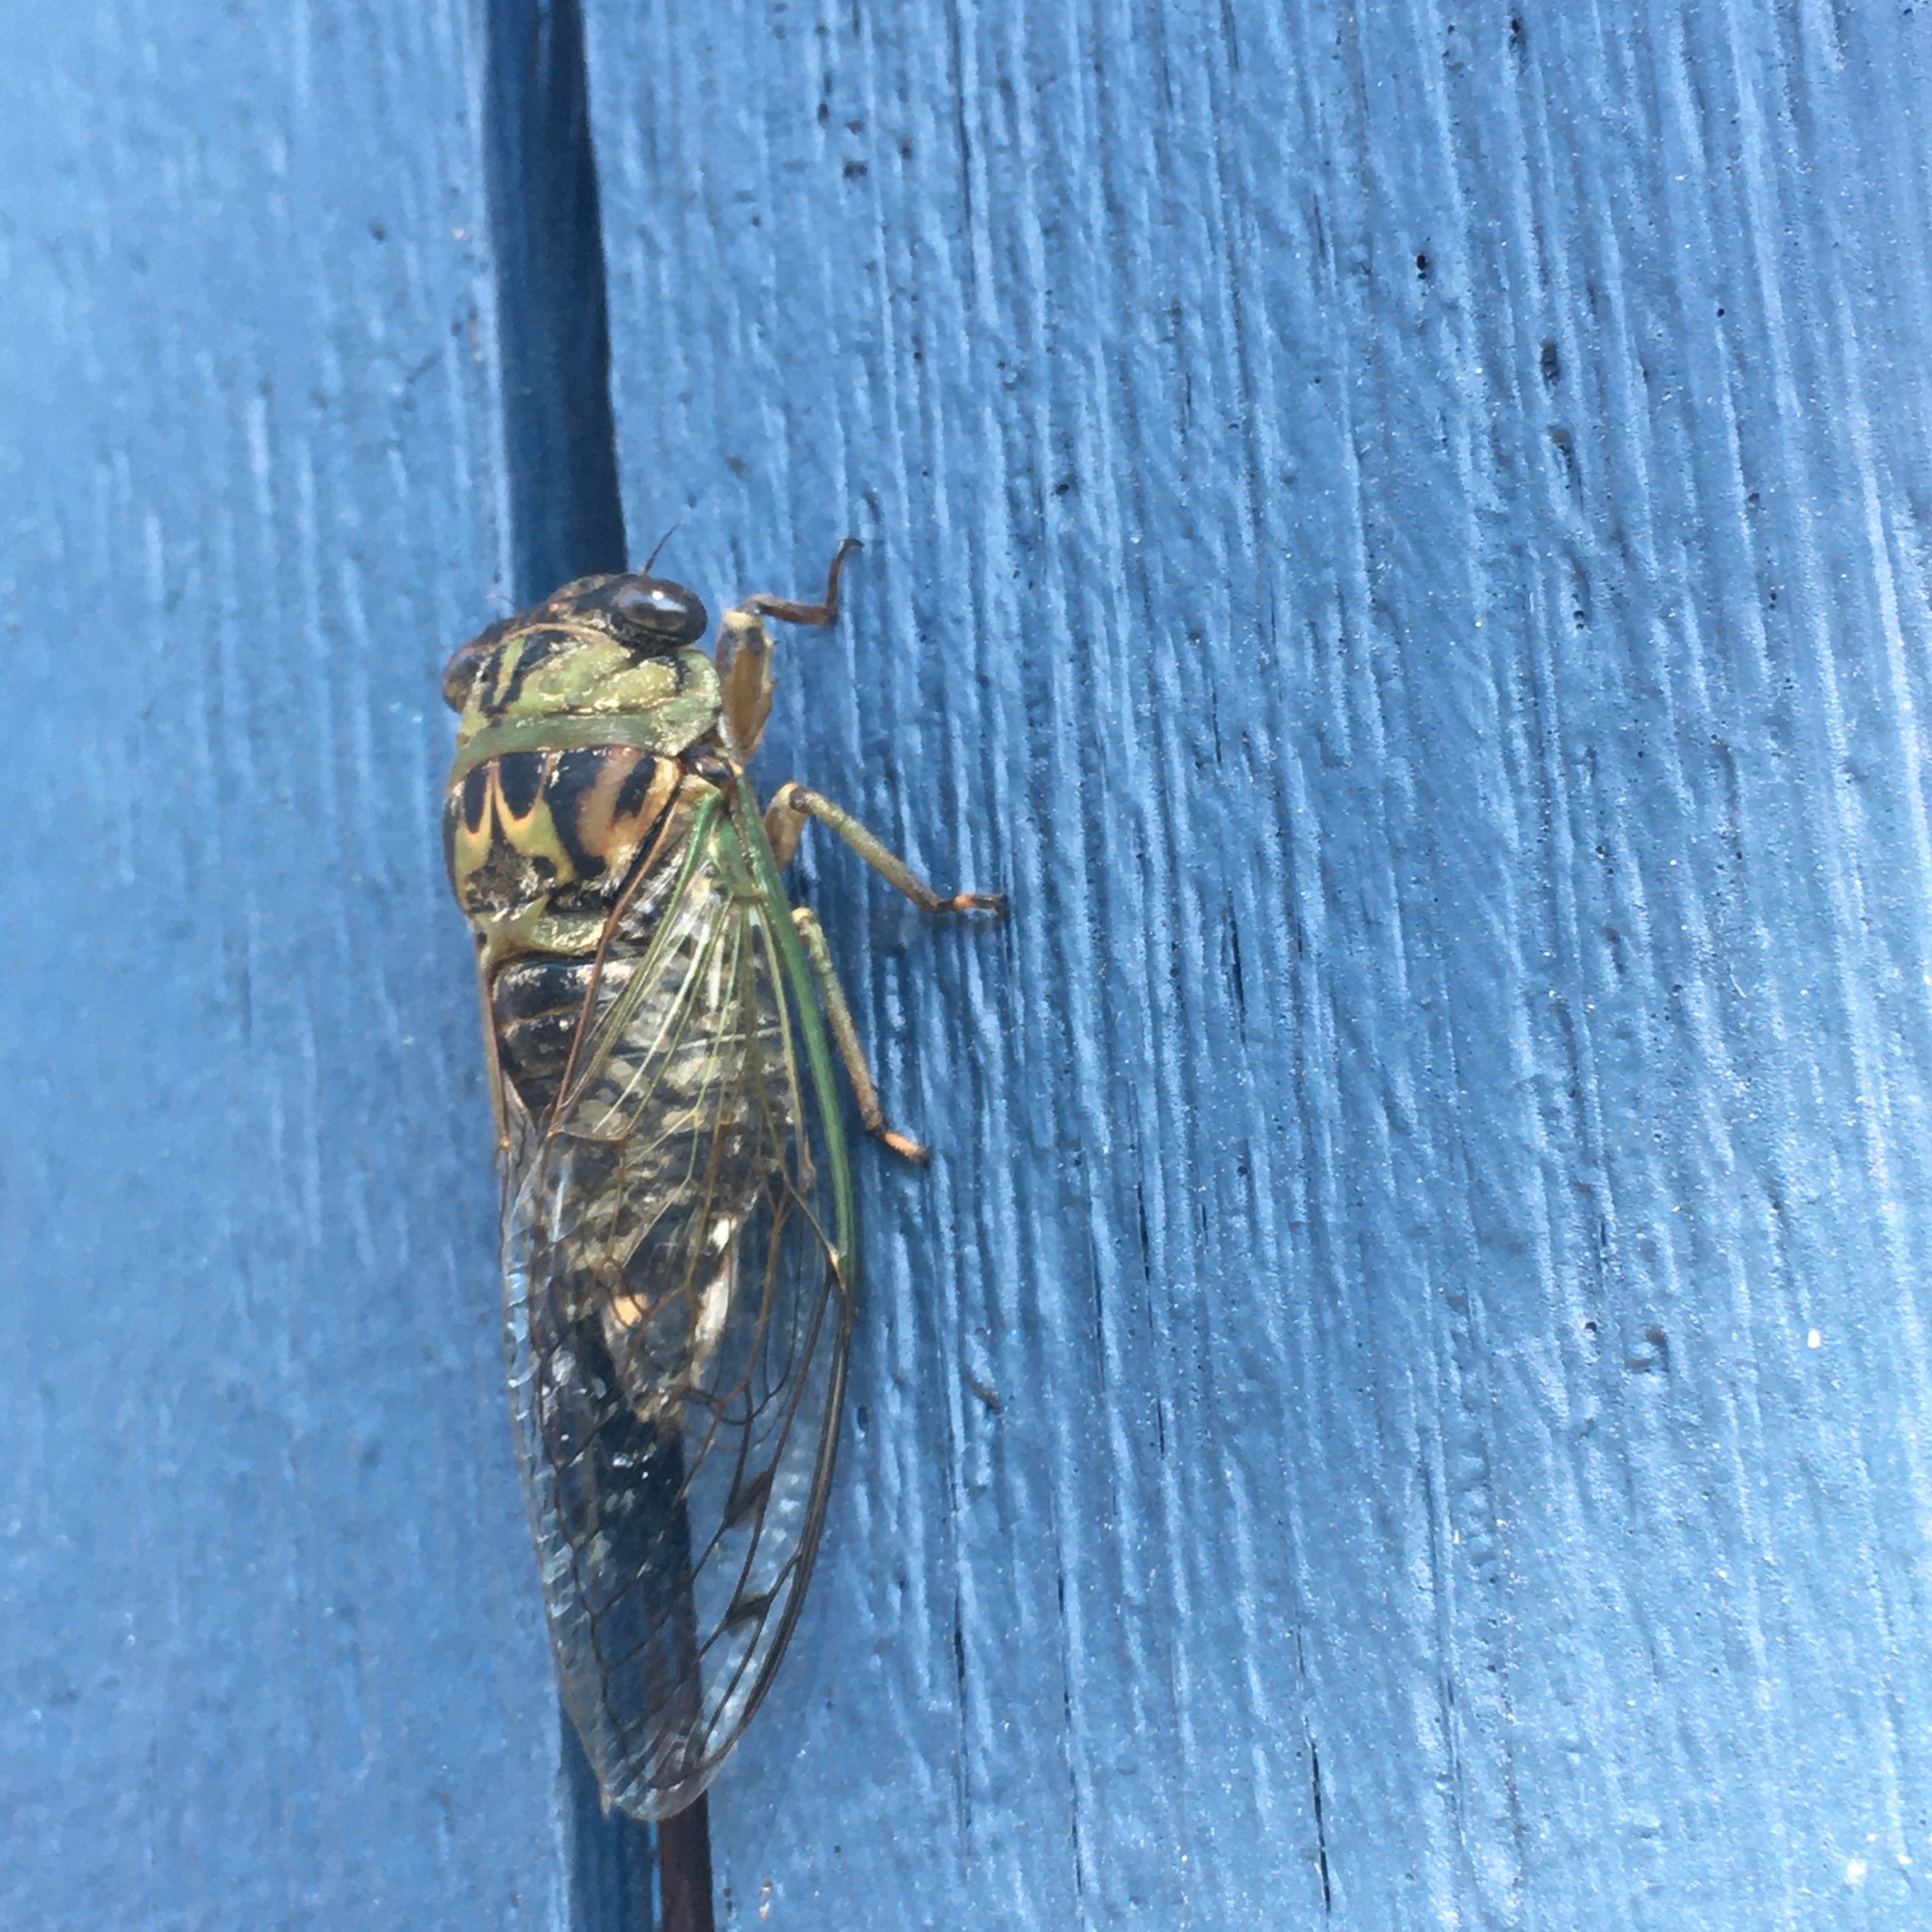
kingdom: Animalia
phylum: Arthropoda
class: Insecta
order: Hemiptera
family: Cicadidae
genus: Neotibicen
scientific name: Neotibicen canicularis
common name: God-day cicada
